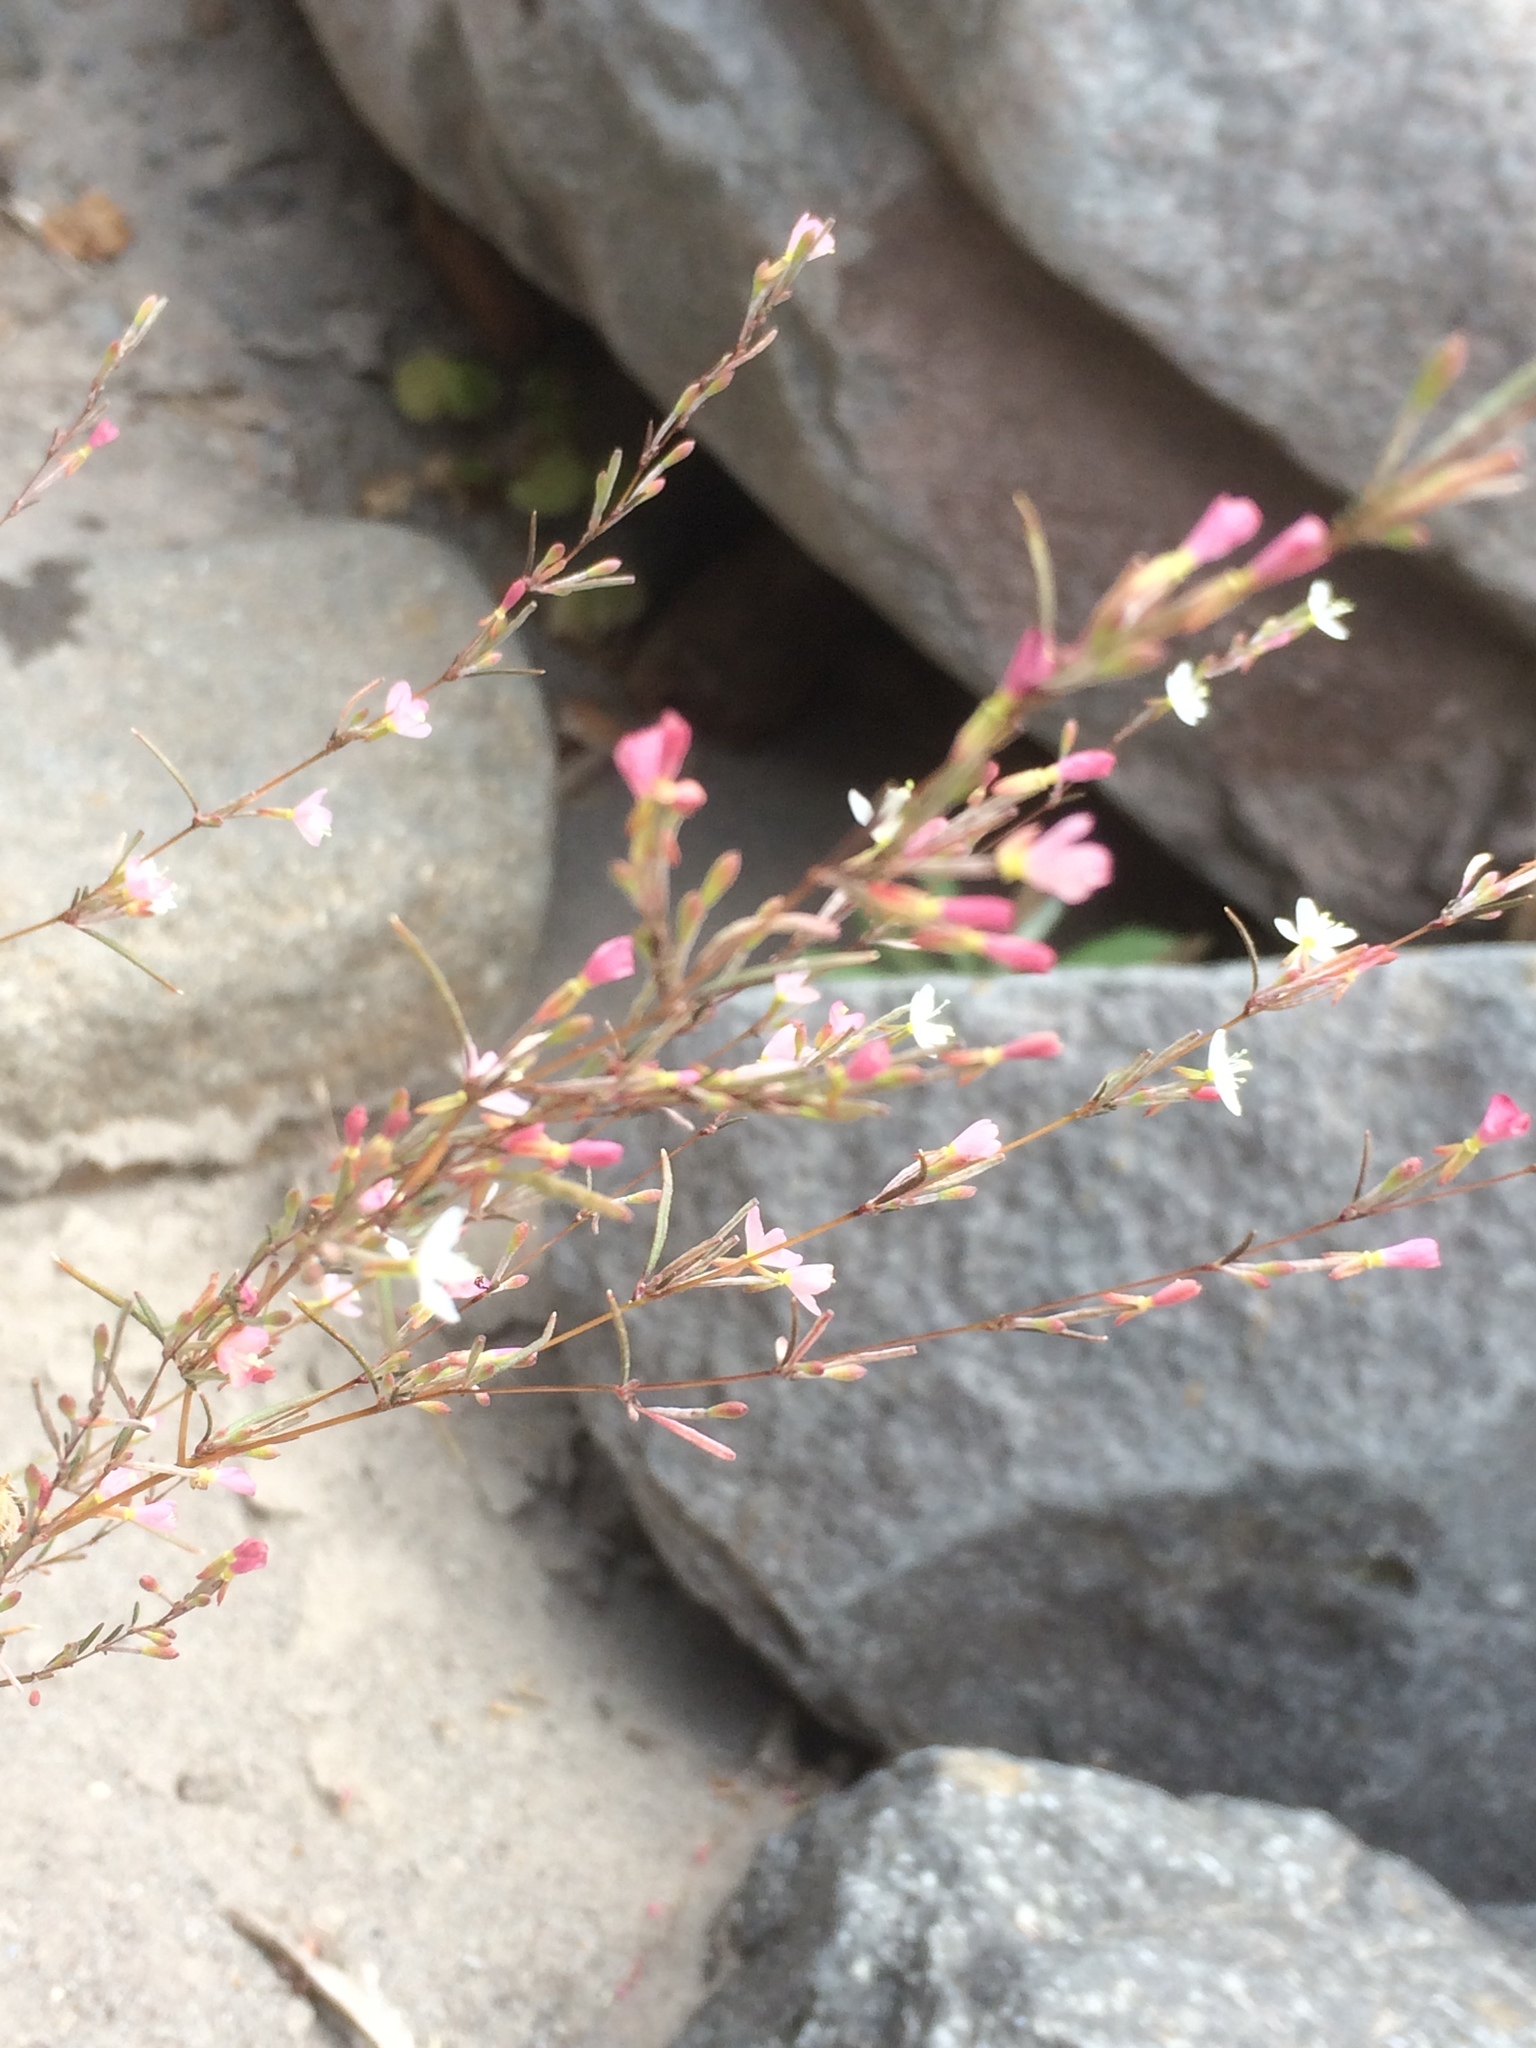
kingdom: Plantae
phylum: Tracheophyta
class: Magnoliopsida
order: Myrtales
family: Onagraceae
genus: Epilobium
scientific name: Epilobium brachycarpum
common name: Annual willowherb
